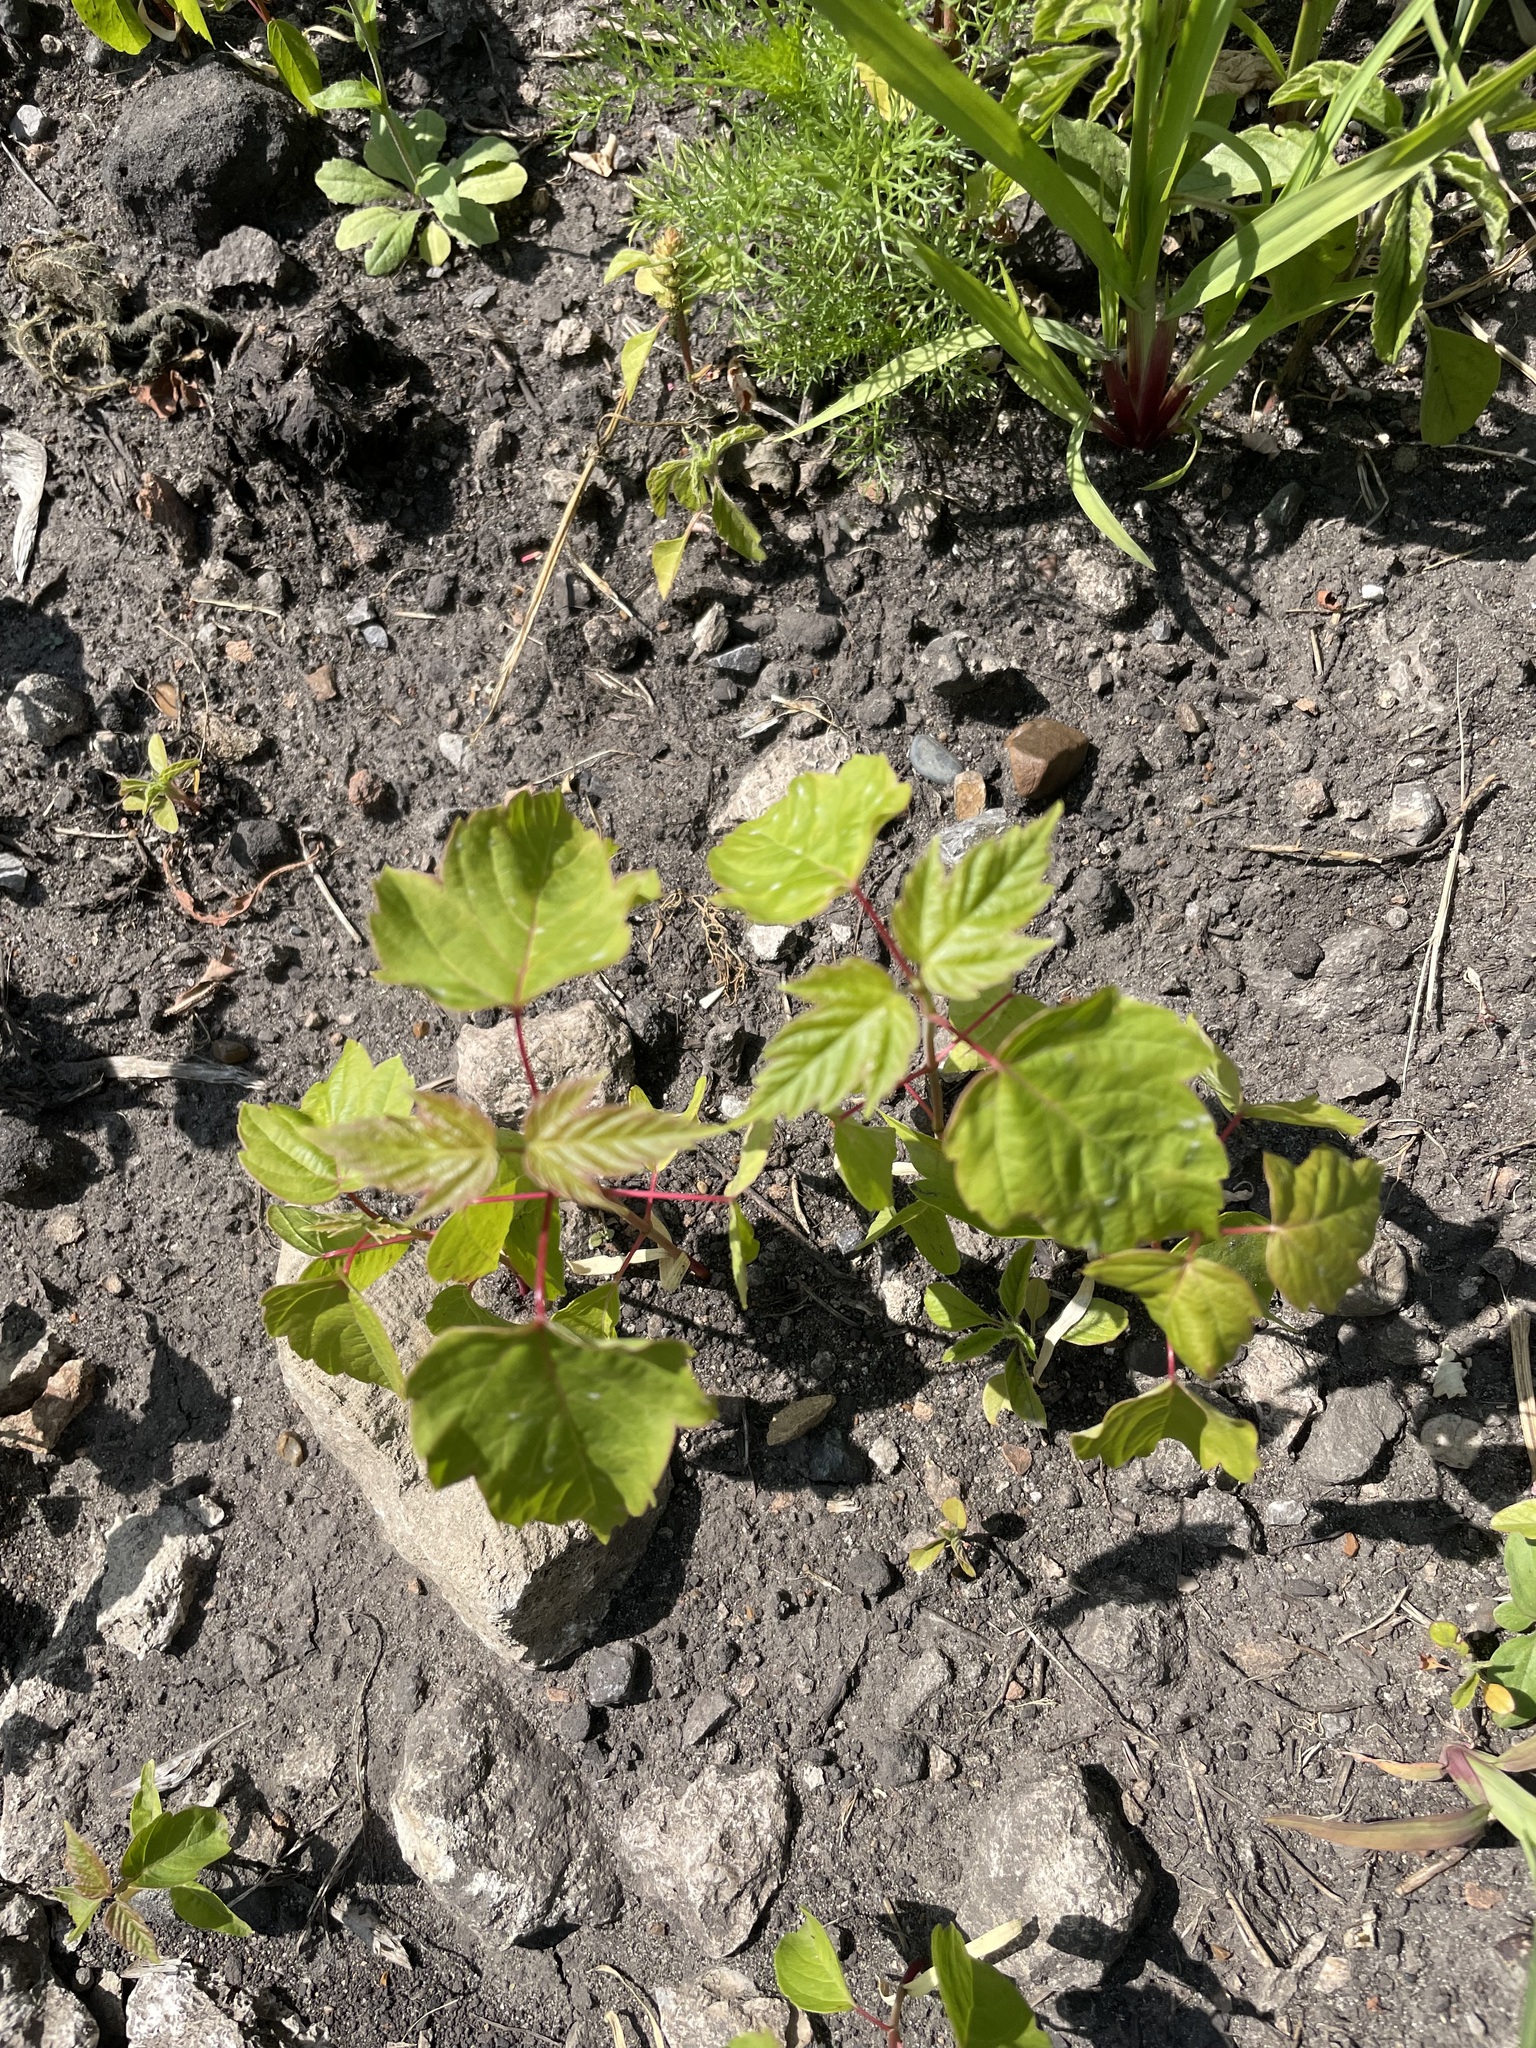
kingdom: Plantae
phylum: Tracheophyta
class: Magnoliopsida
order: Sapindales
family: Sapindaceae
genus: Acer
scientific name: Acer negundo
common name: Ashleaf maple
